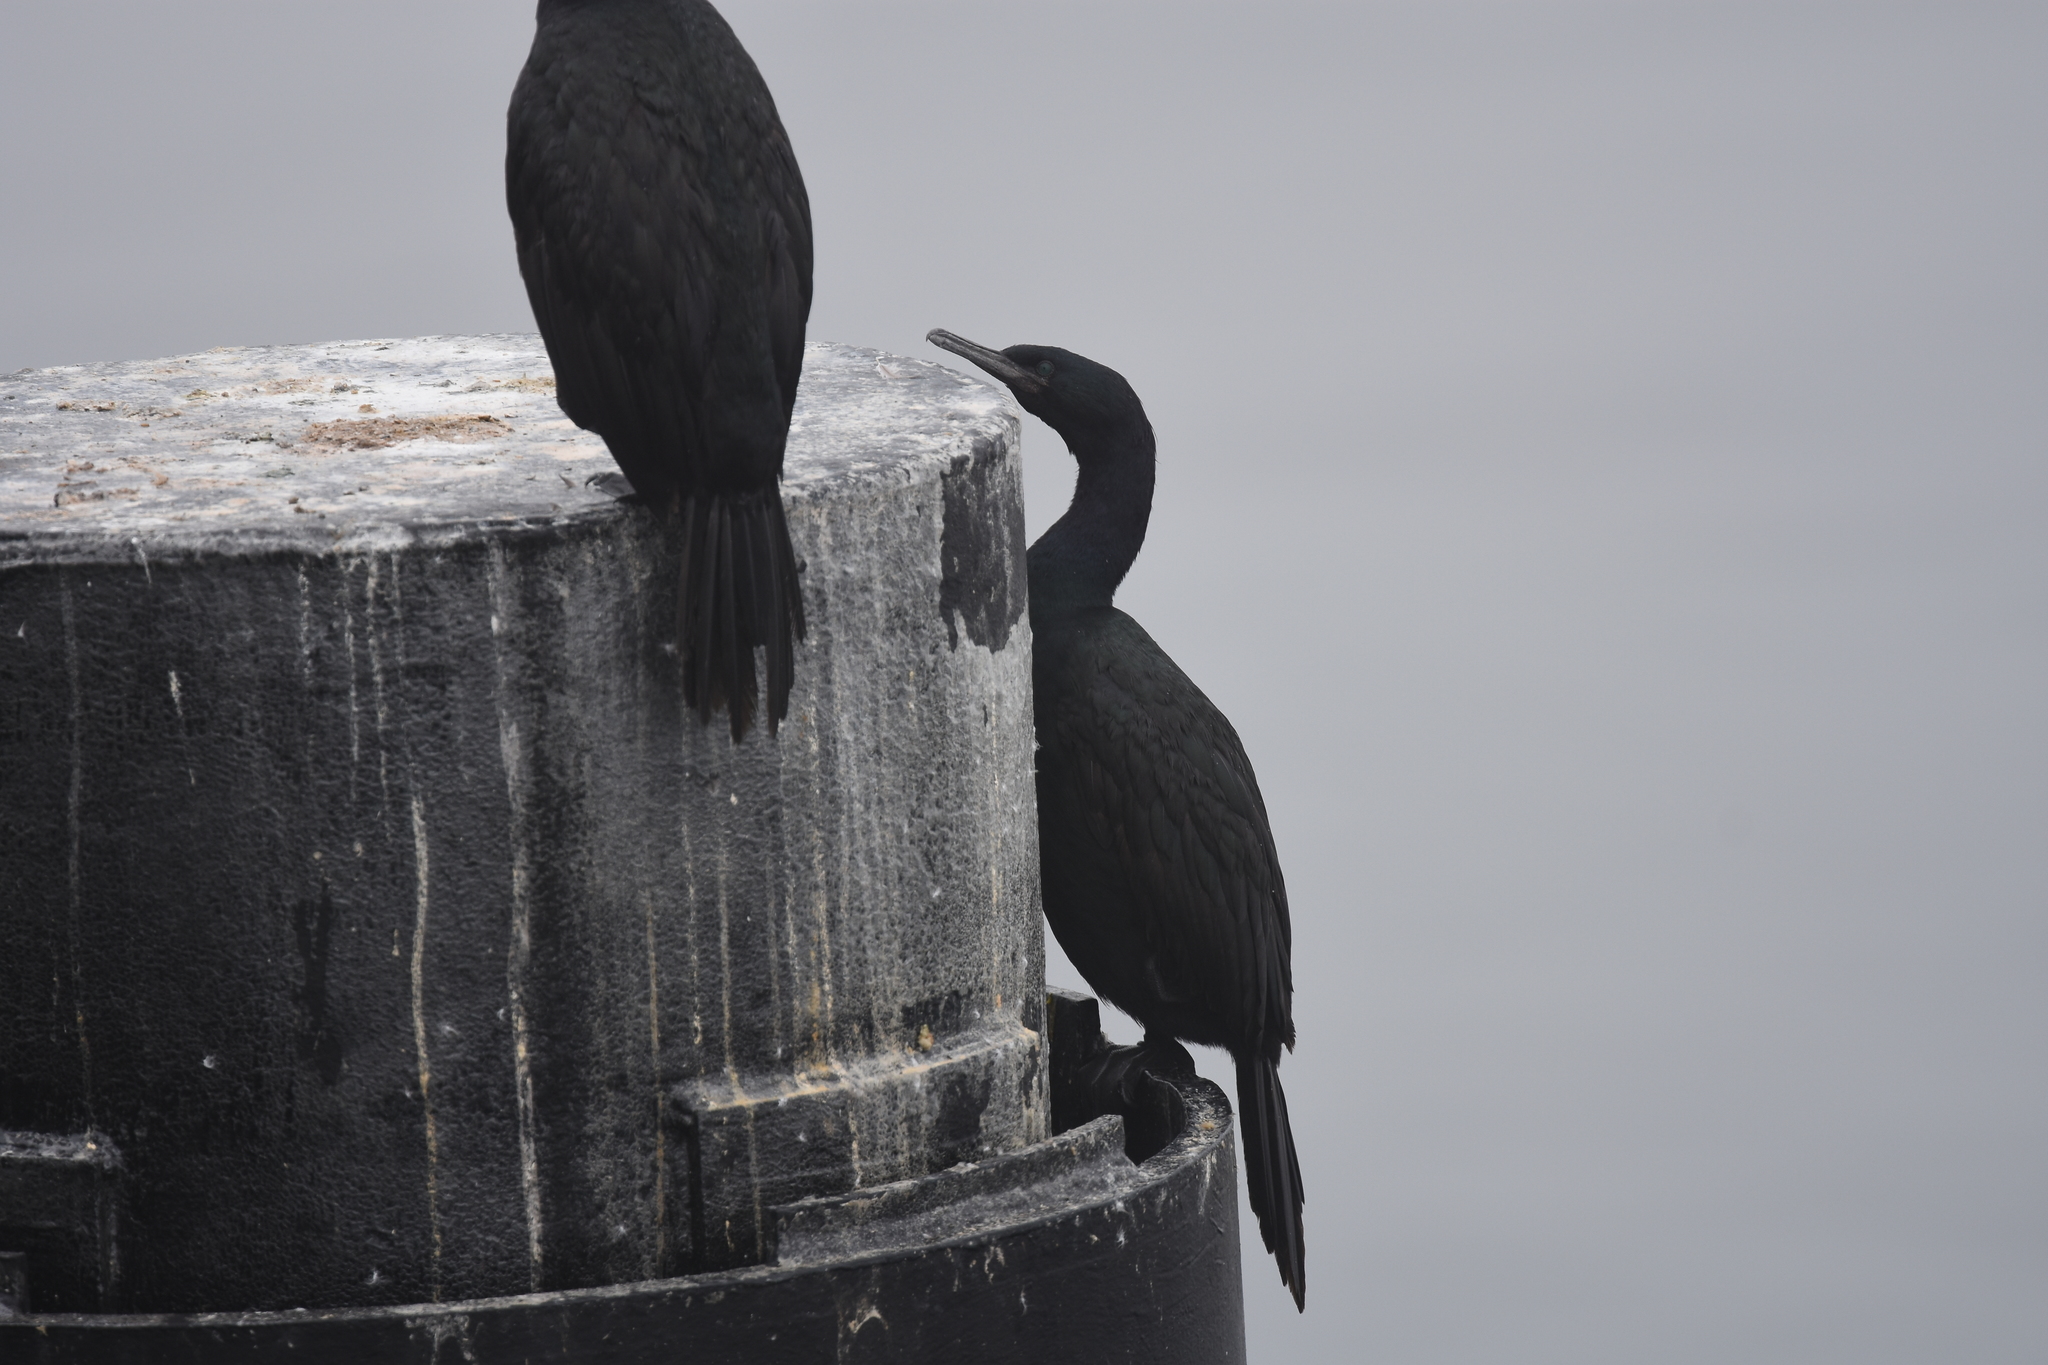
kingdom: Animalia
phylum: Chordata
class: Aves
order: Suliformes
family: Phalacrocoracidae
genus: Phalacrocorax
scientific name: Phalacrocorax pelagicus
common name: Pelagic cormorant
